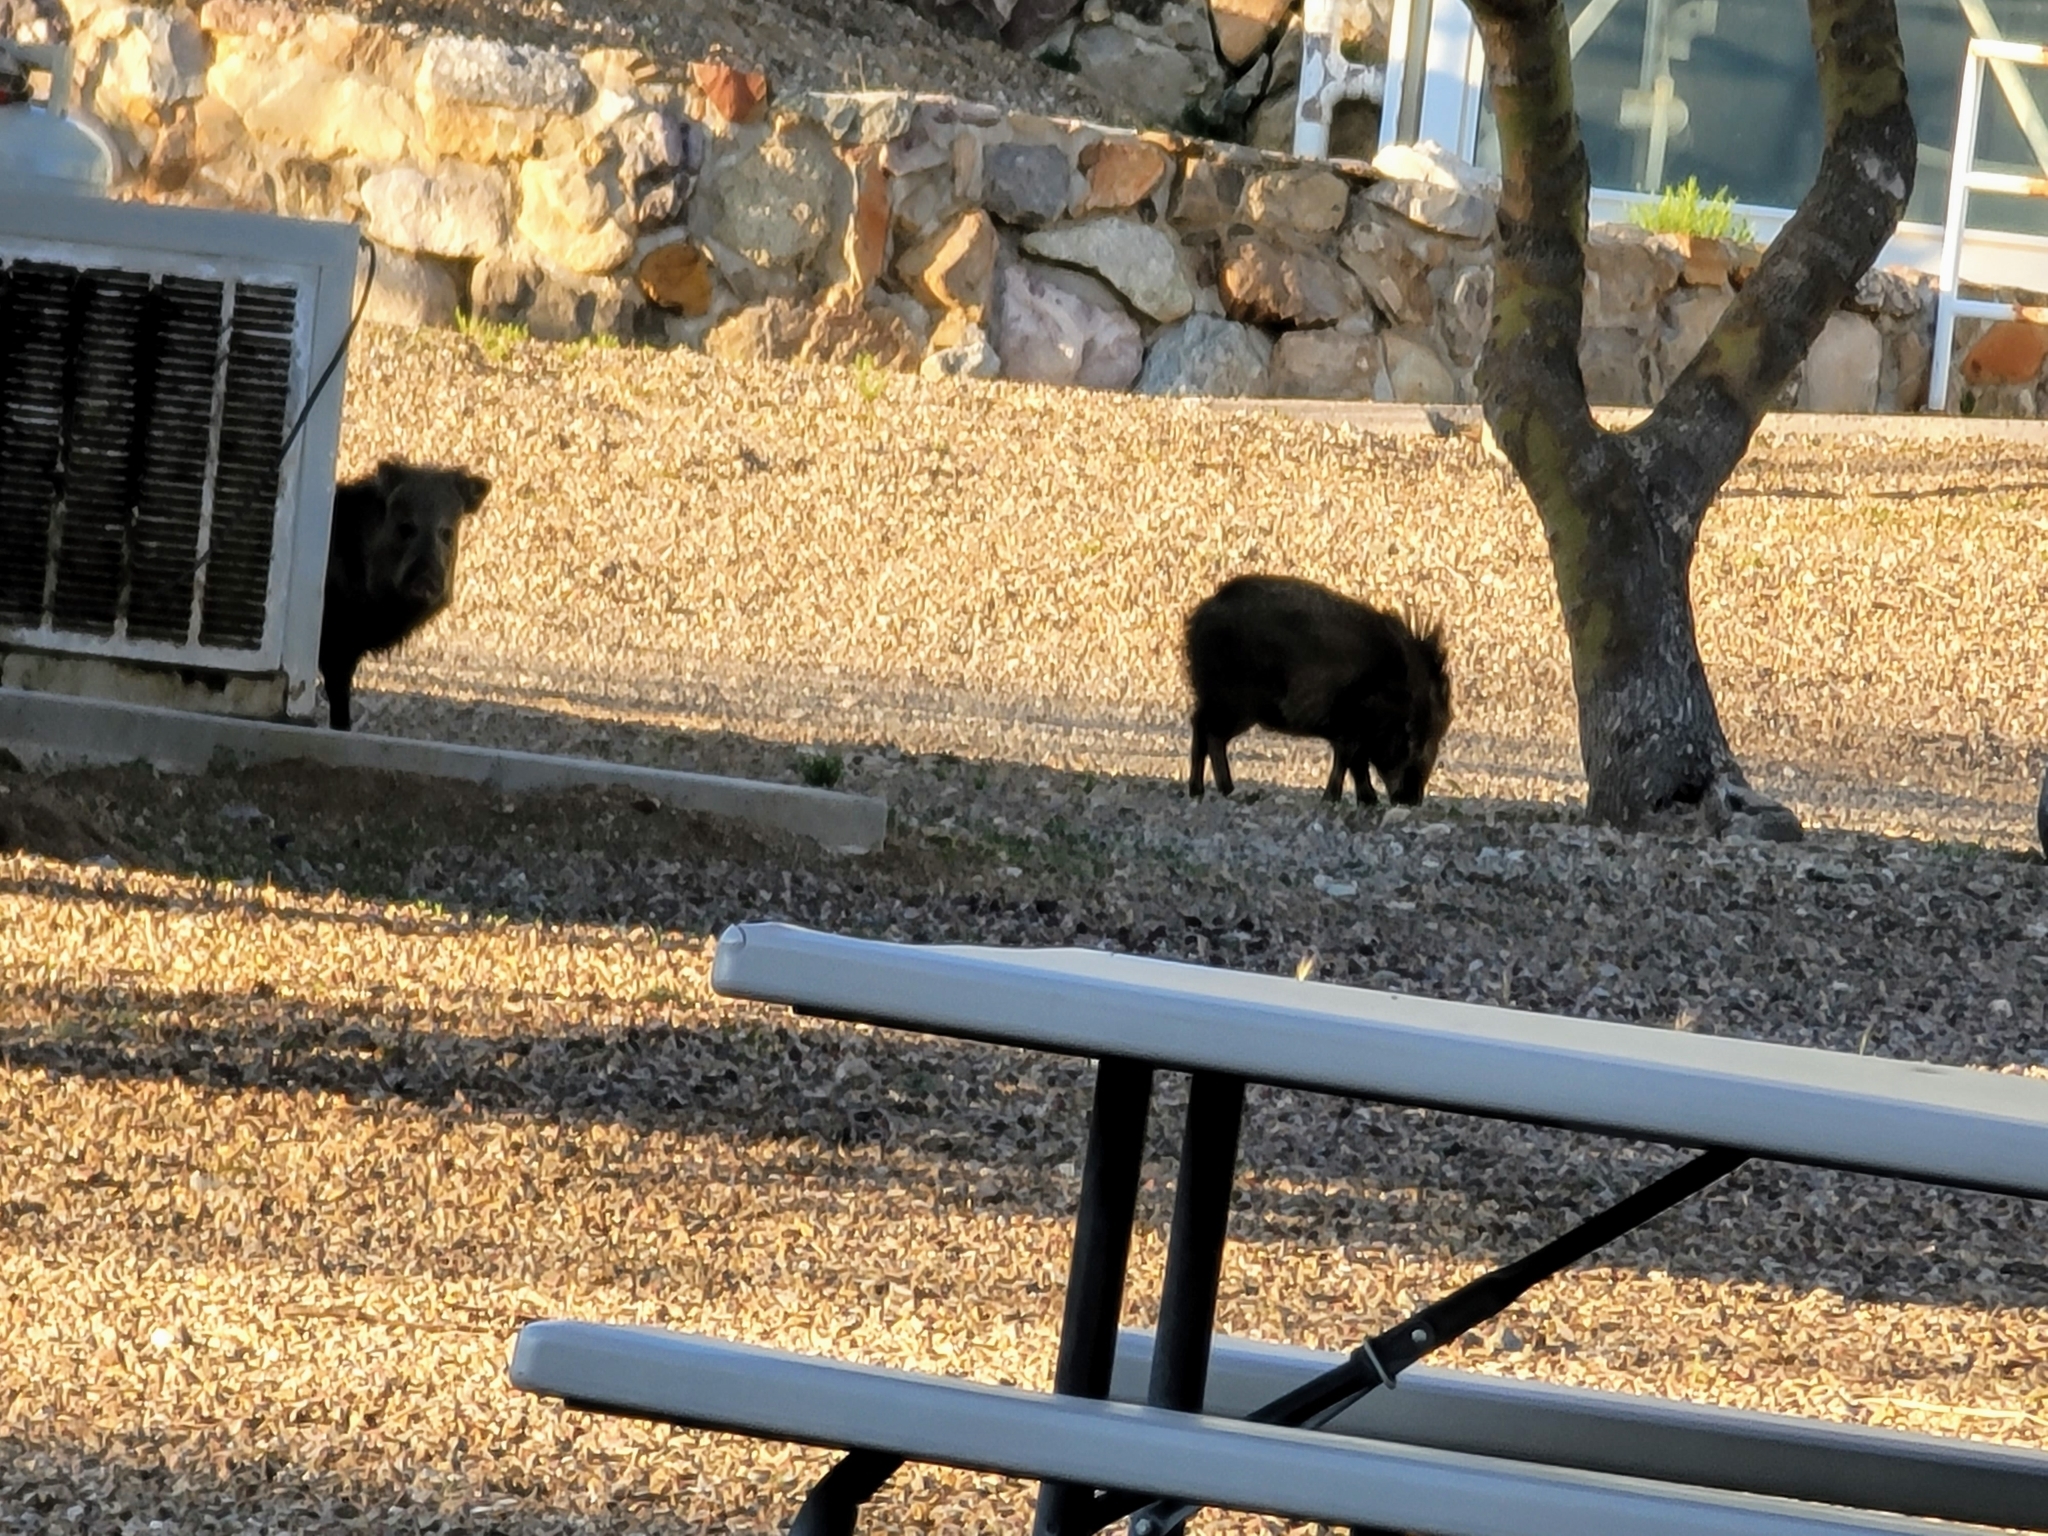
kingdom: Animalia
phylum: Chordata
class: Mammalia
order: Artiodactyla
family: Tayassuidae
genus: Pecari
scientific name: Pecari tajacu
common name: Collared peccary
